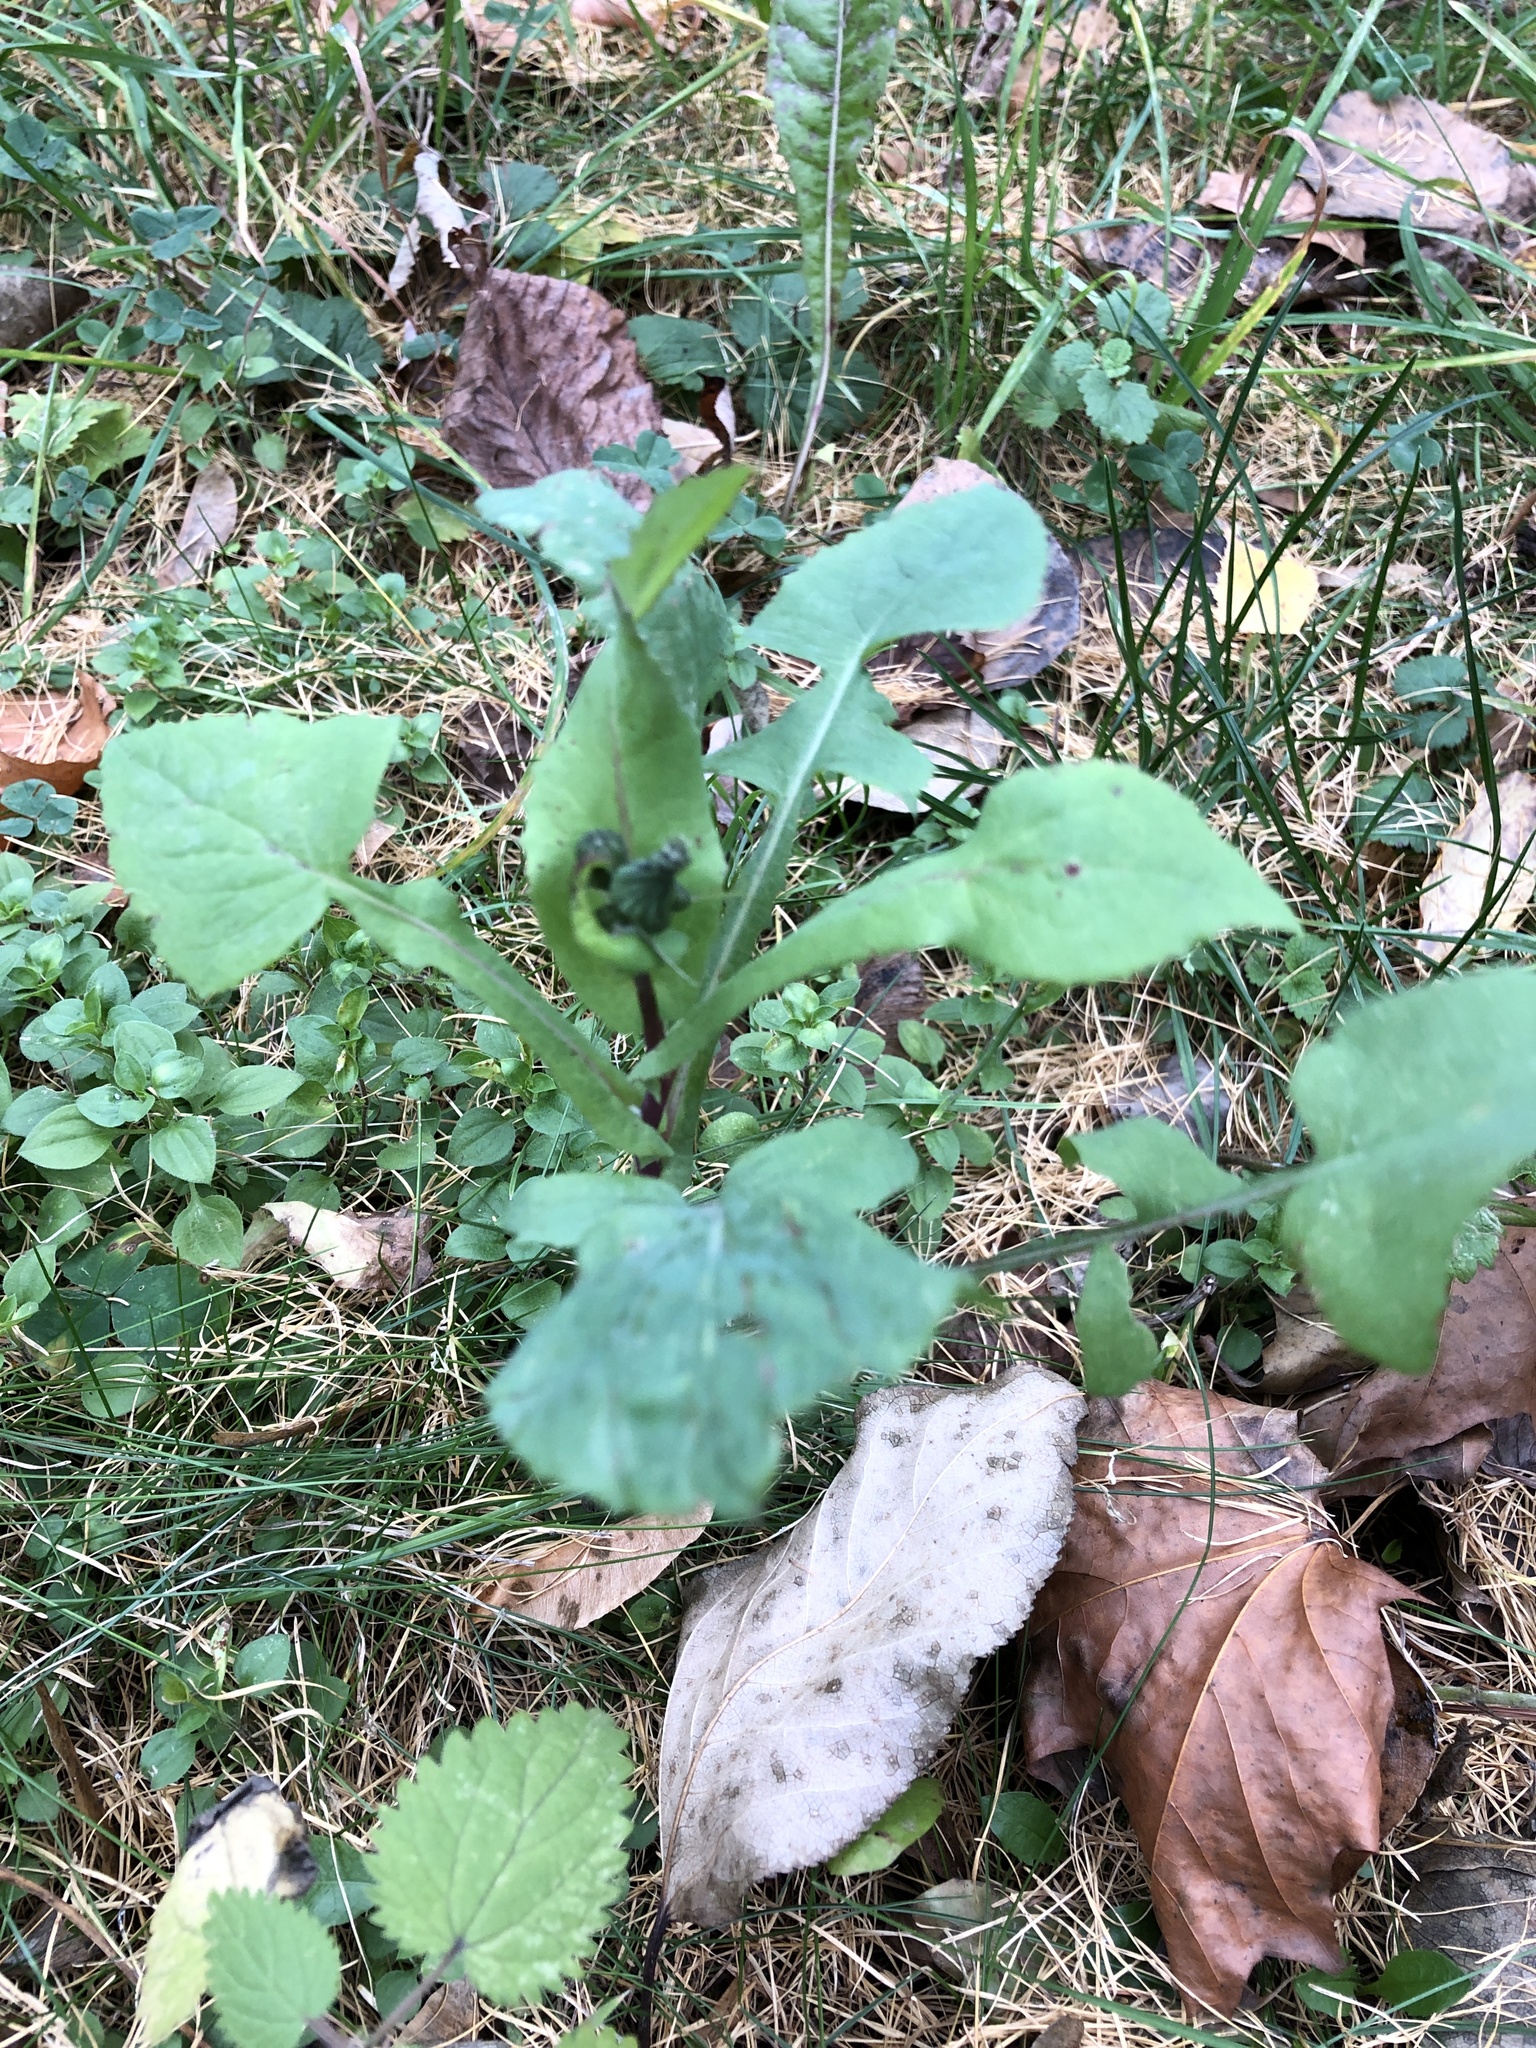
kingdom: Plantae
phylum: Tracheophyta
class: Magnoliopsida
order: Asterales
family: Asteraceae
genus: Sonchus
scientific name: Sonchus oleraceus
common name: Common sowthistle
